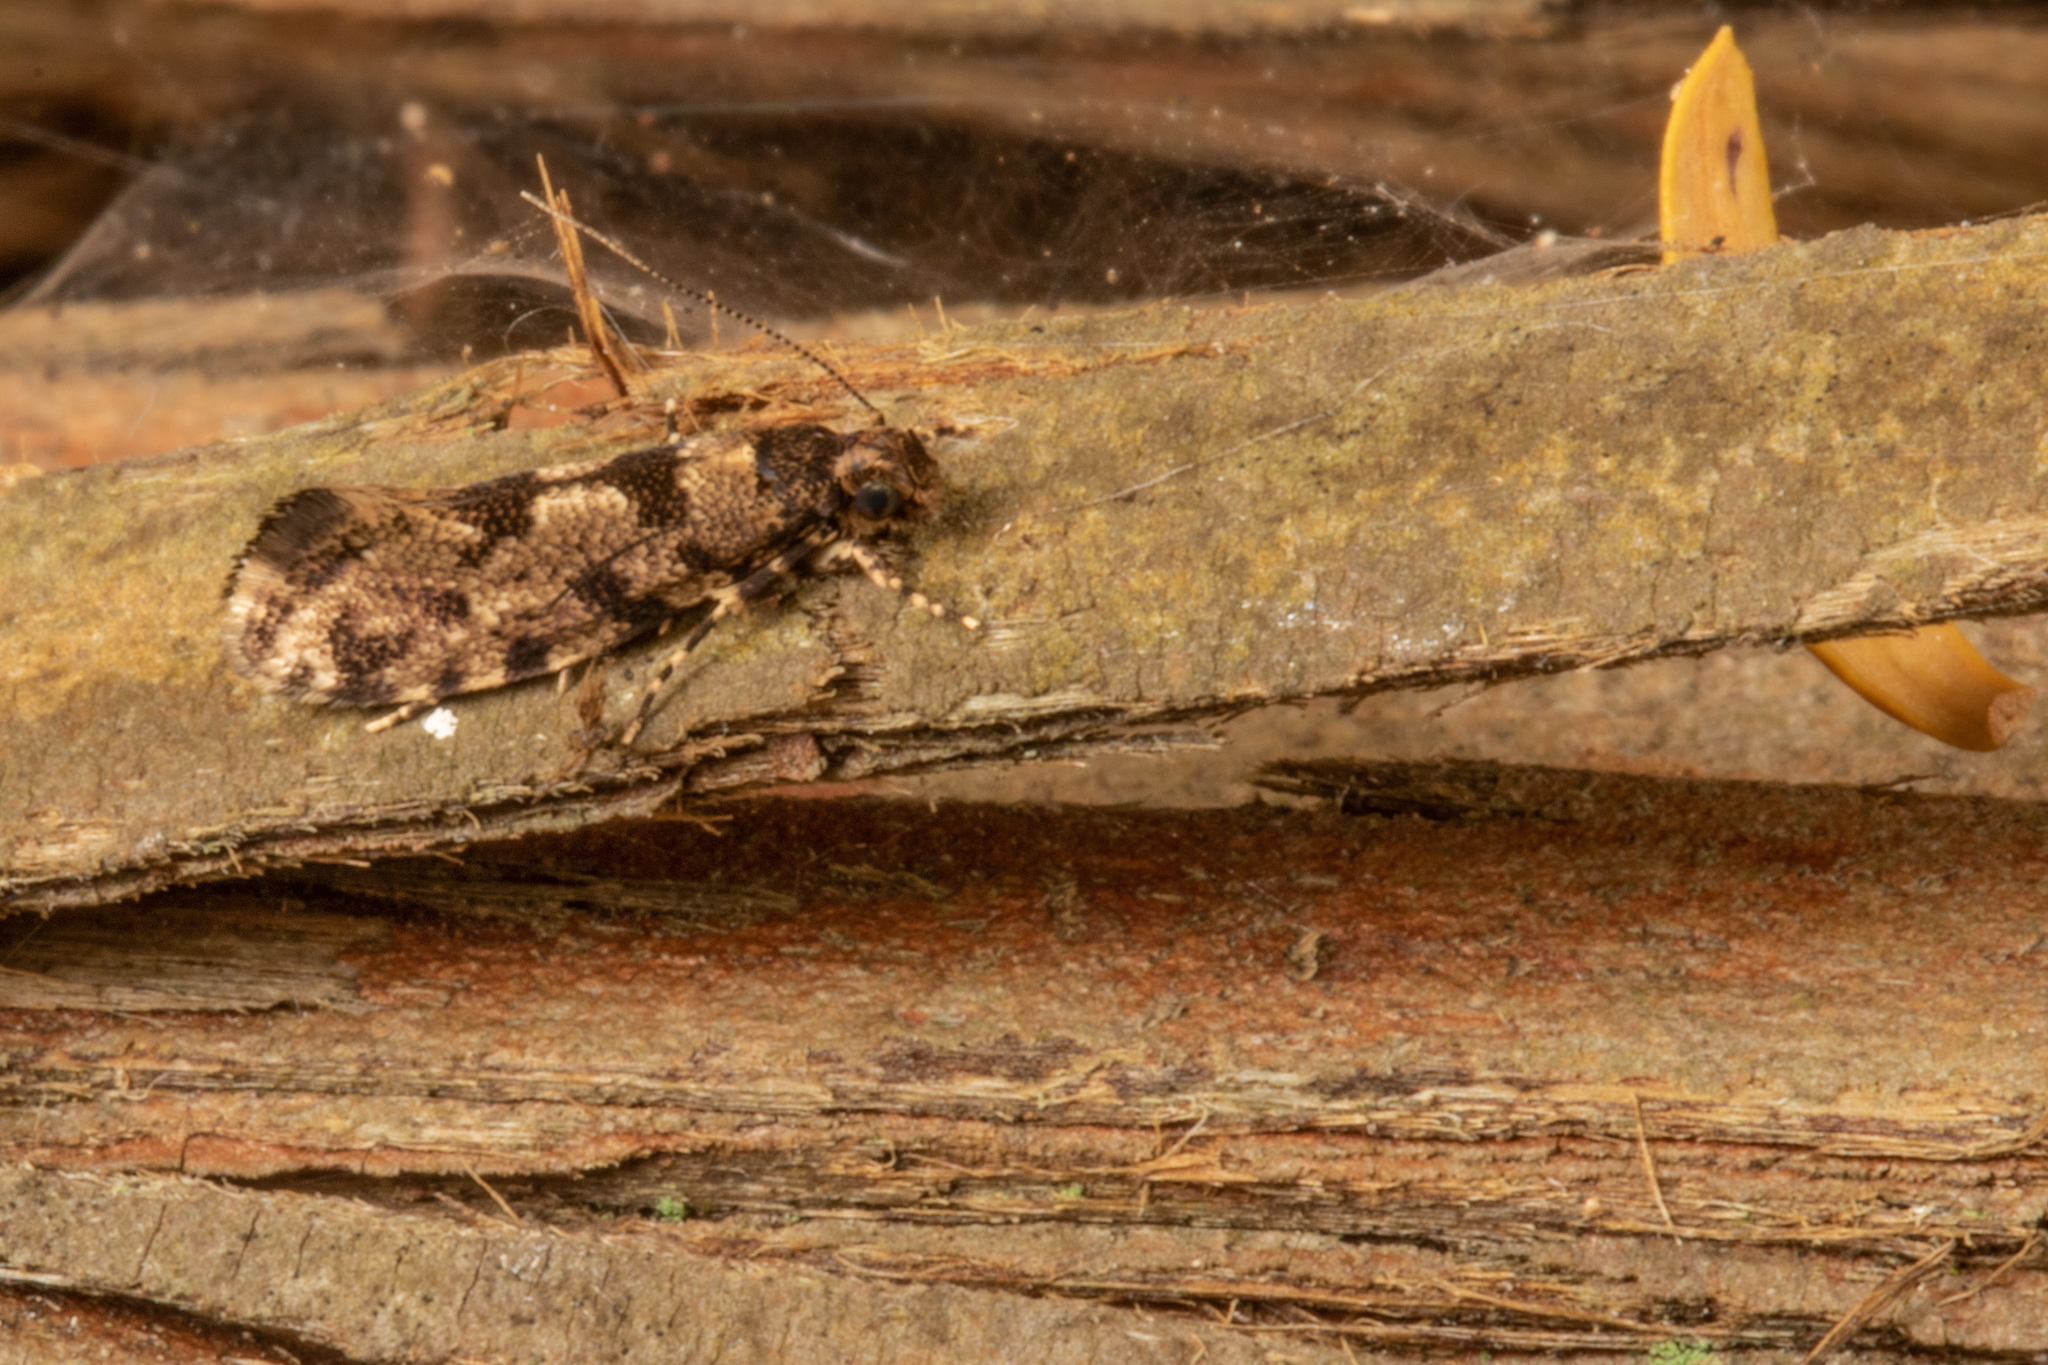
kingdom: Animalia
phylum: Arthropoda
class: Insecta
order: Lepidoptera
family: Tineidae
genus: Parochmastis
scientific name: Parochmastis hilderi
